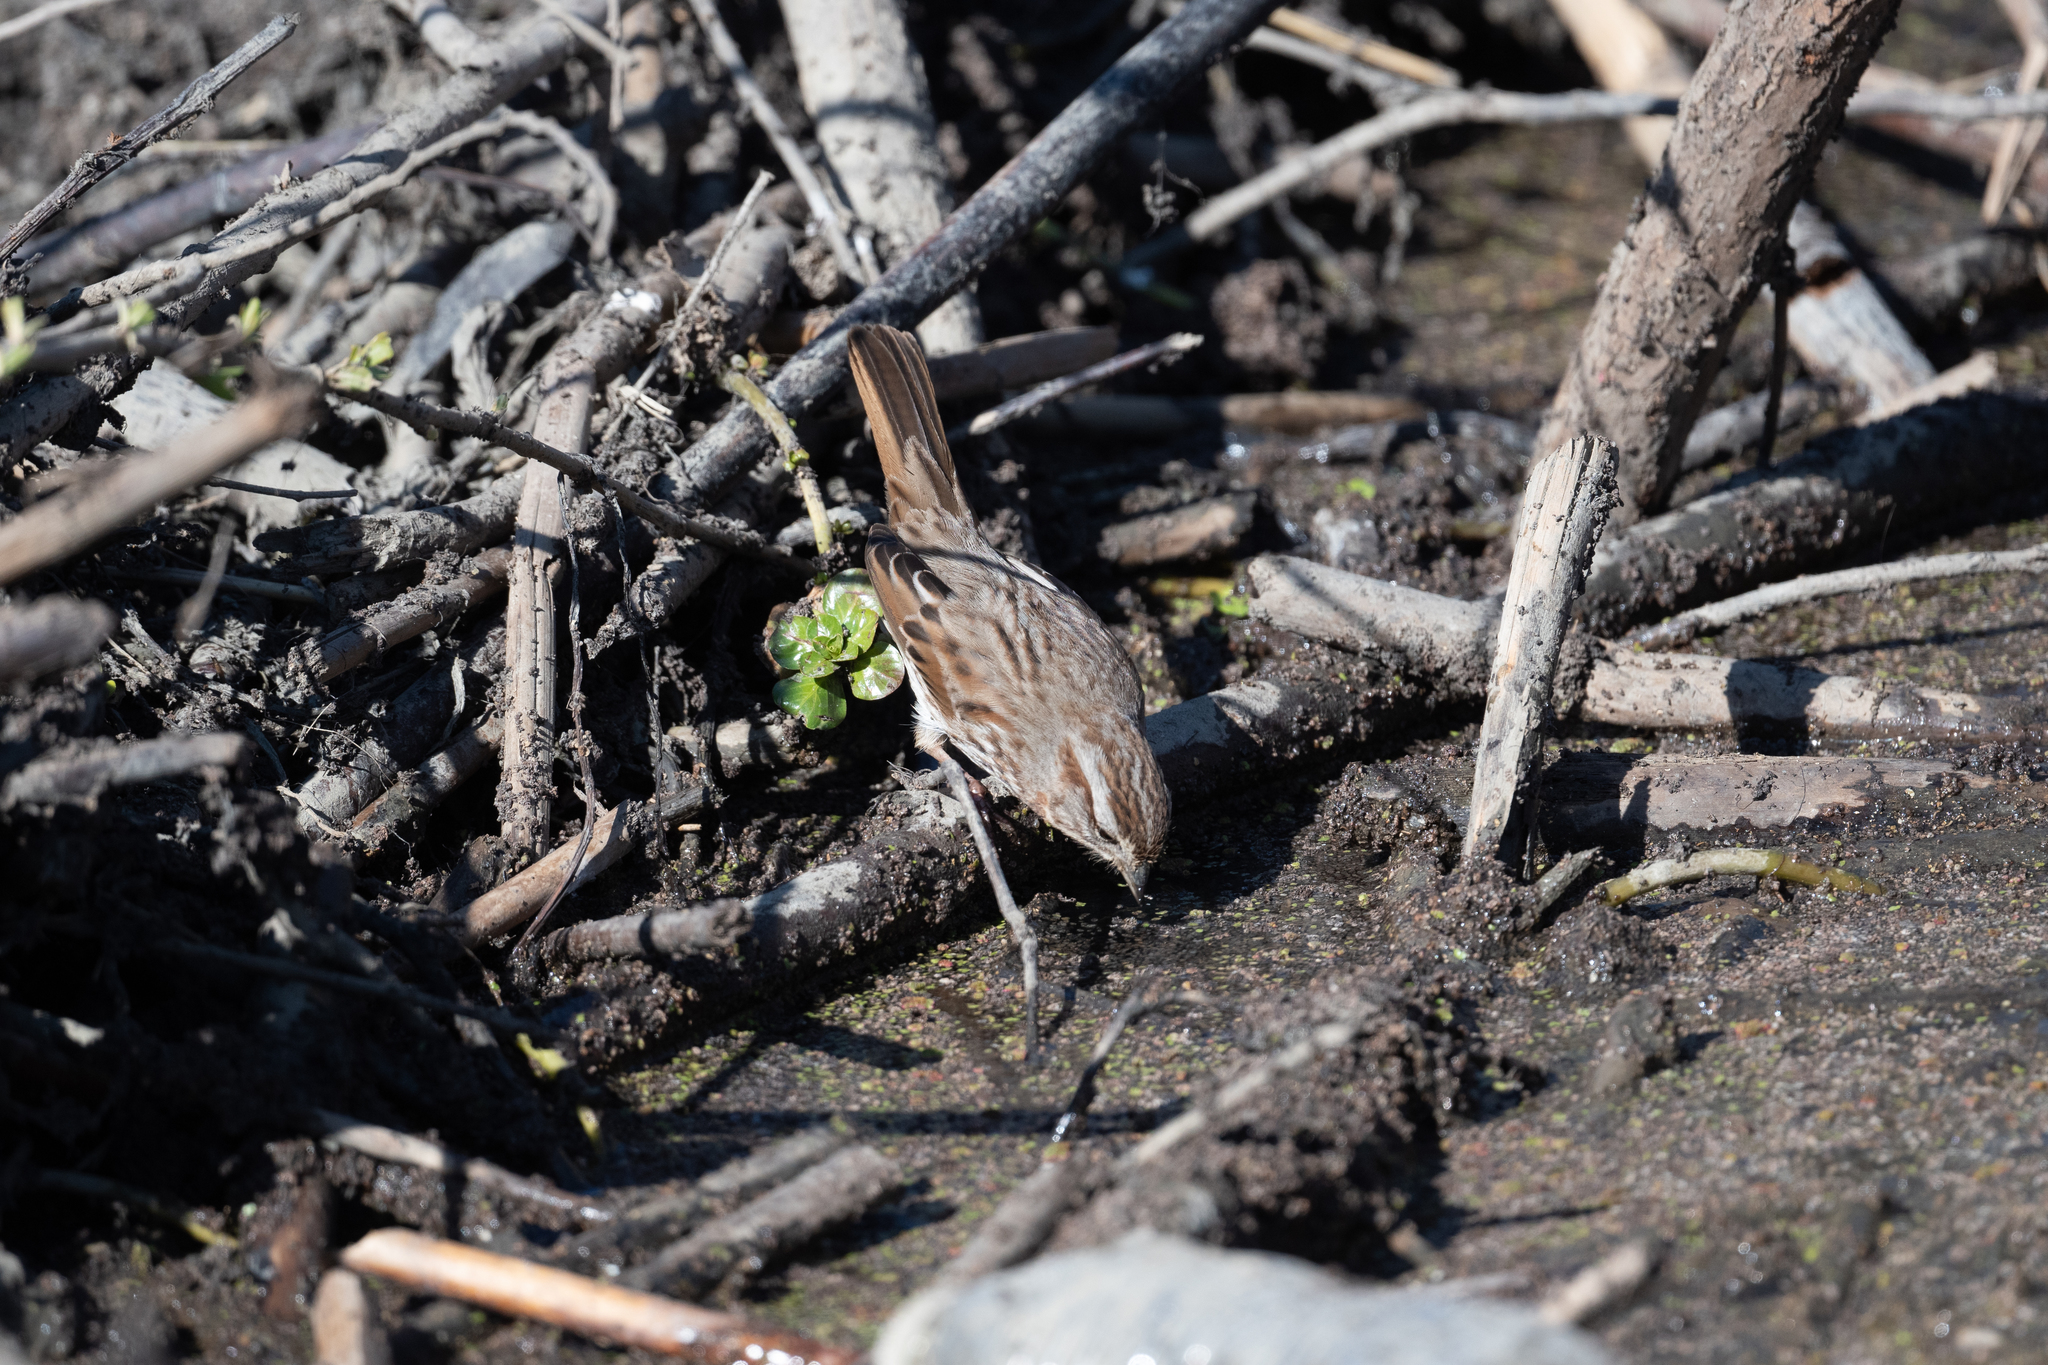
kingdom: Animalia
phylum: Chordata
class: Aves
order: Passeriformes
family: Passerellidae
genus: Melospiza
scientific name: Melospiza melodia
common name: Song sparrow
